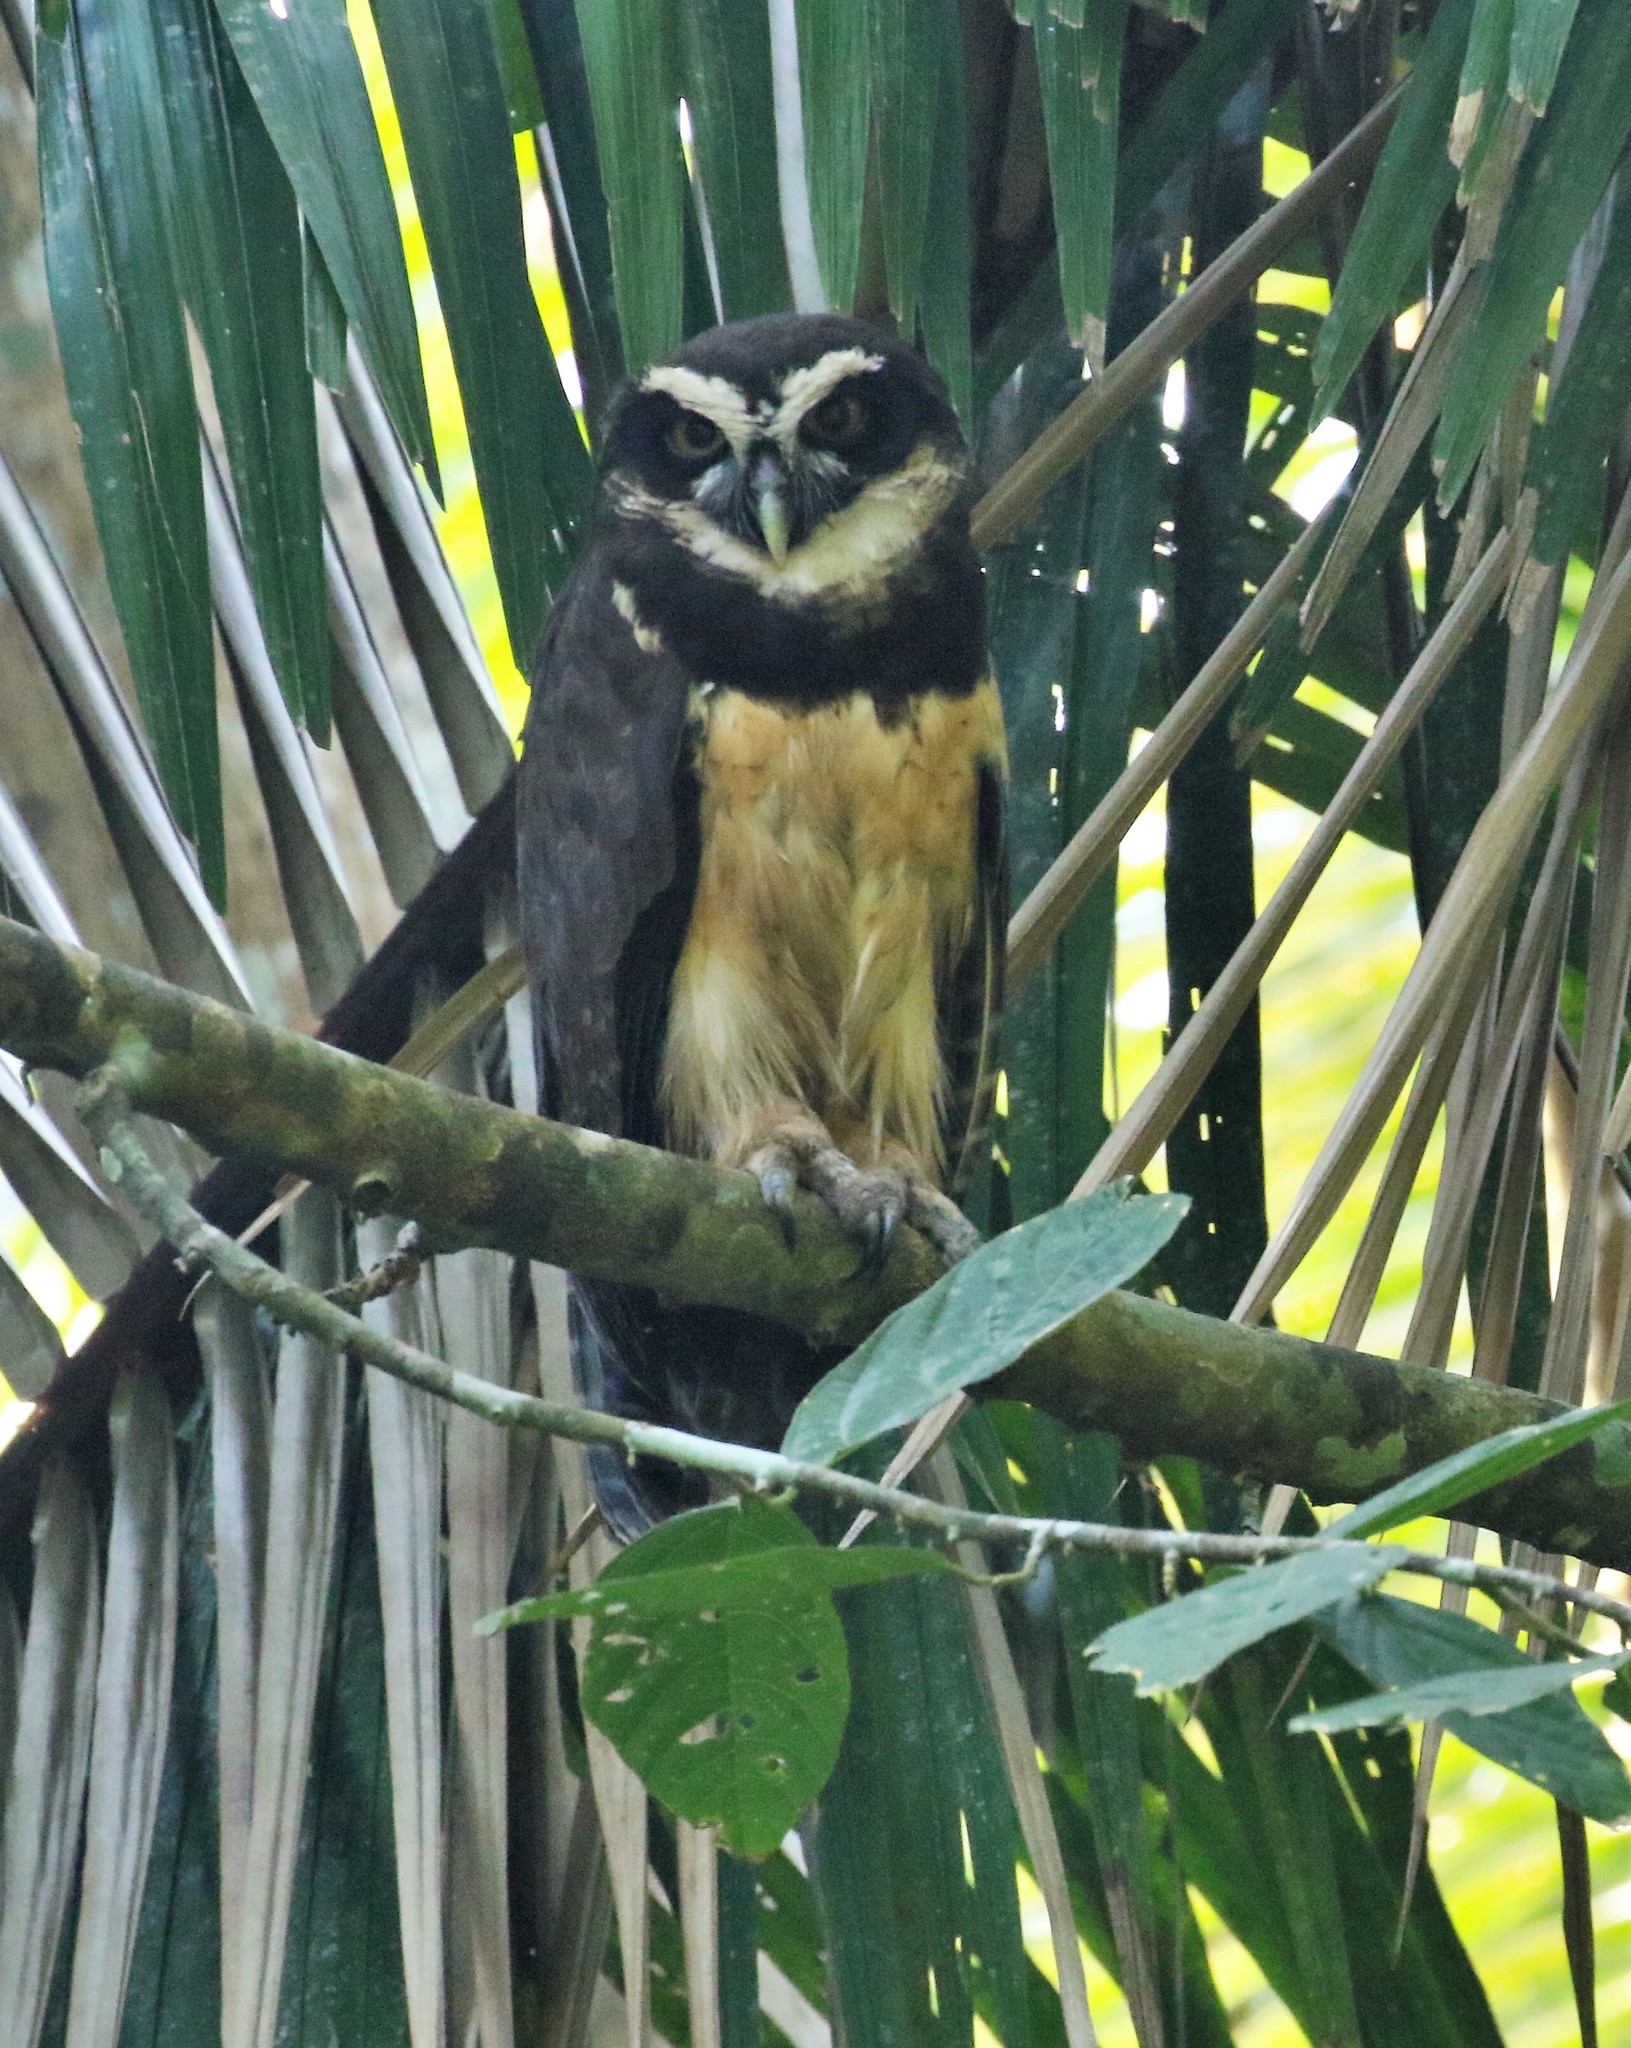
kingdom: Animalia
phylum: Chordata
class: Aves
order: Strigiformes
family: Strigidae
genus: Pulsatrix
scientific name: Pulsatrix perspicillata
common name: Spectacled owl
